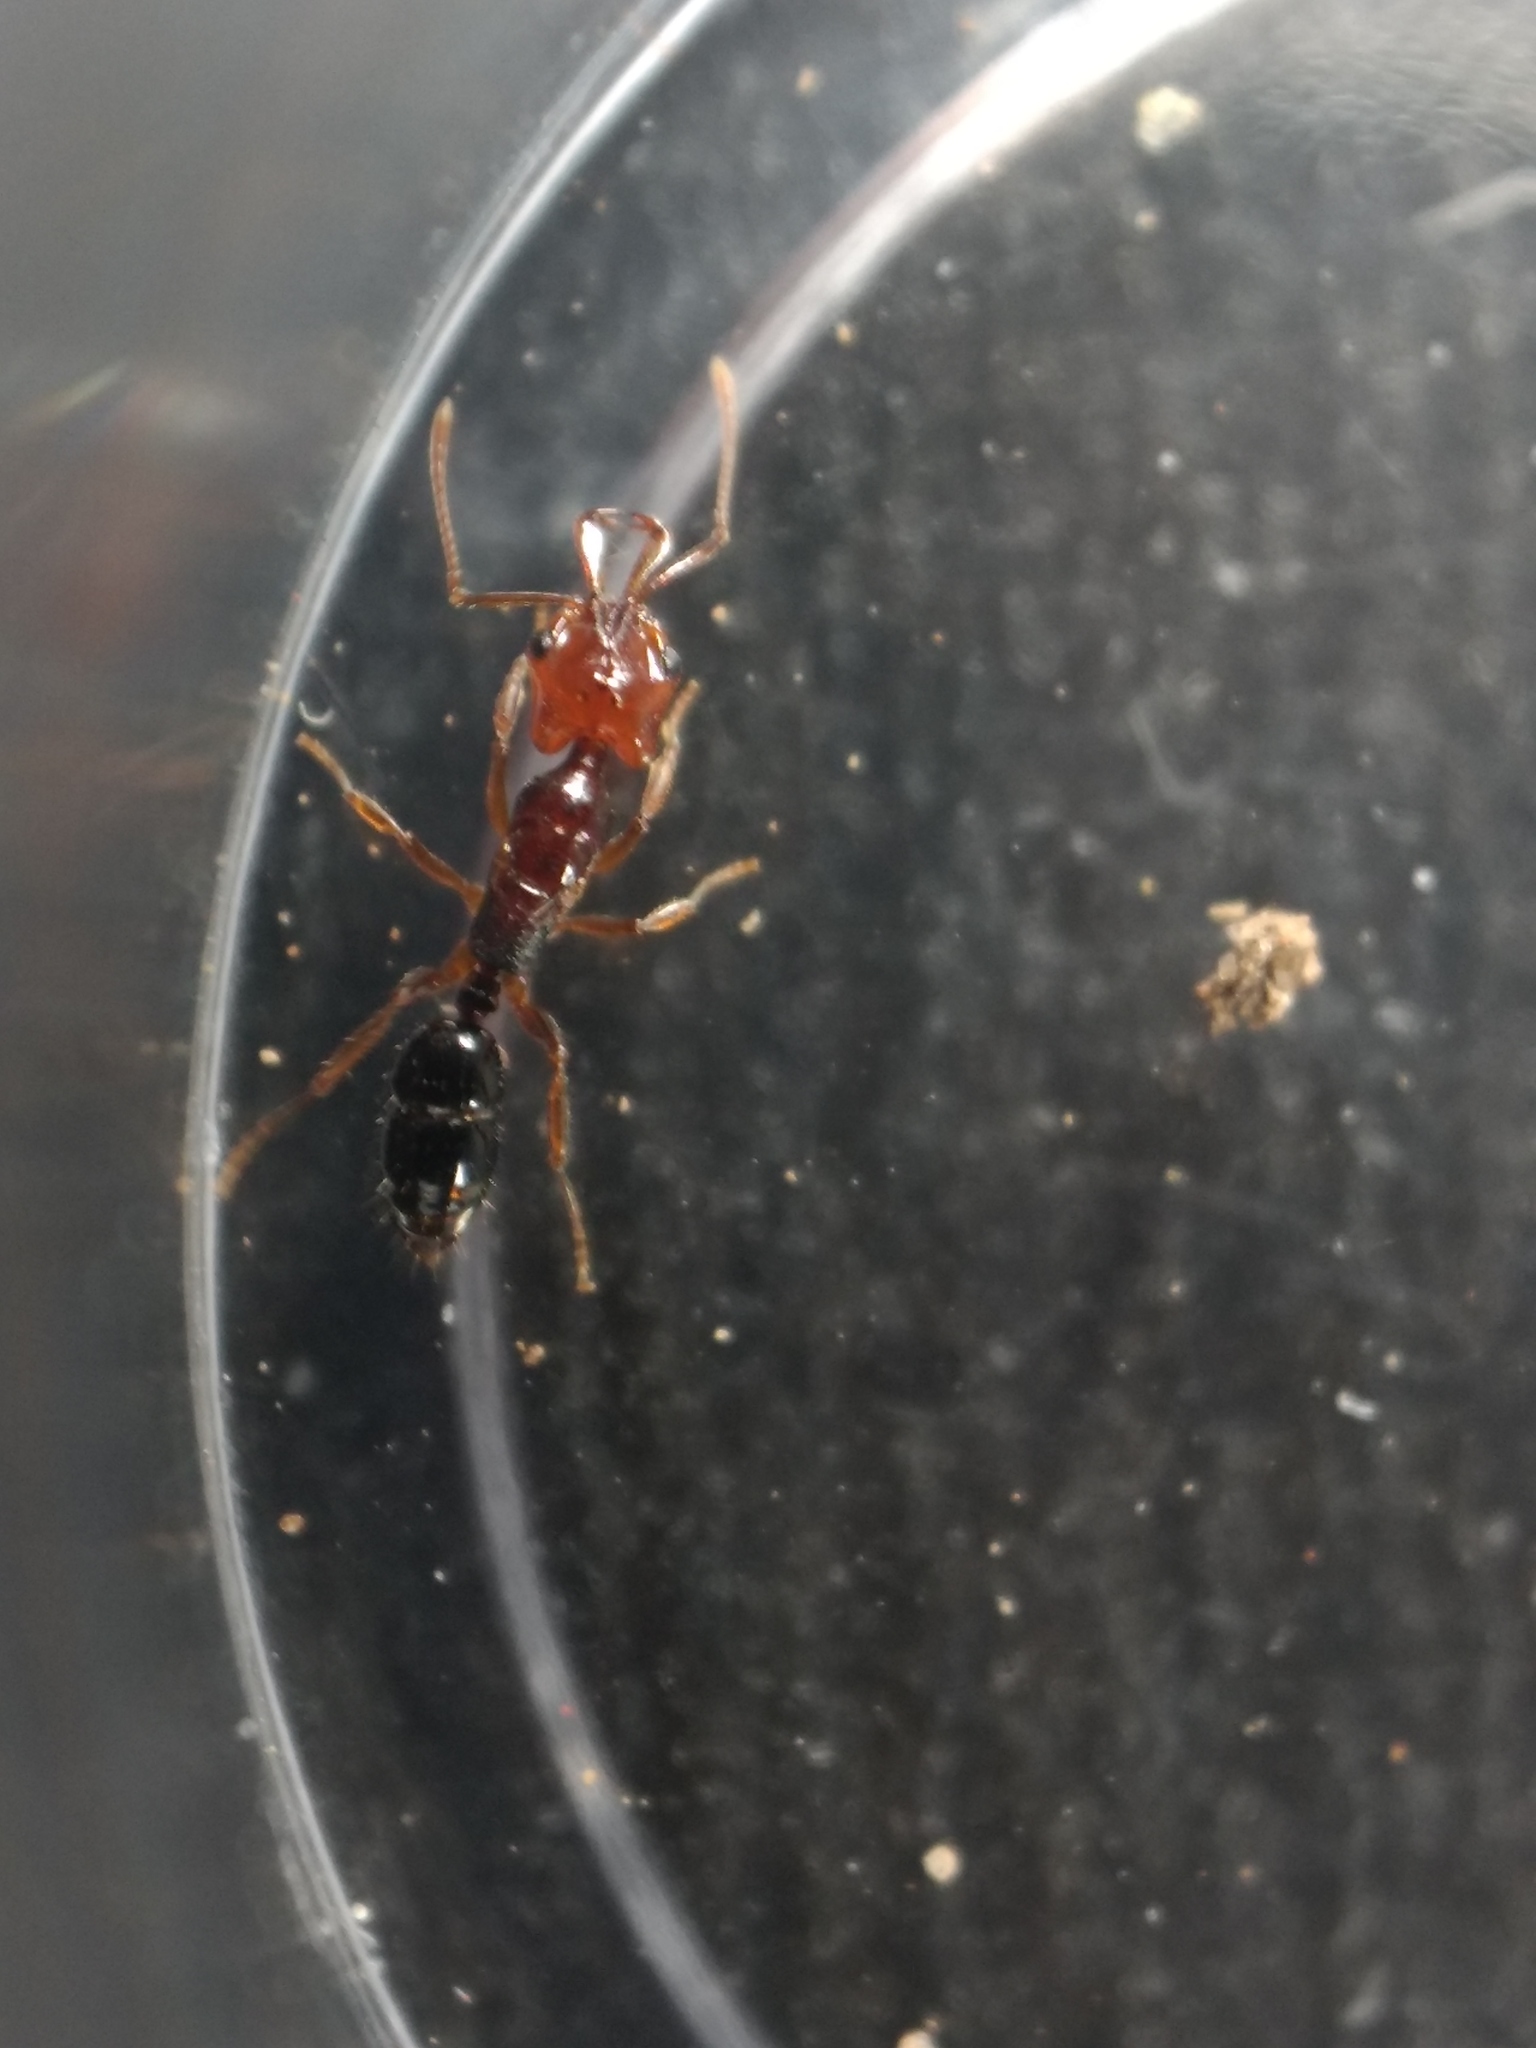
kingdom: Animalia
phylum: Arthropoda
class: Insecta
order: Hymenoptera
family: Formicidae
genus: Anochetus
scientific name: Anochetus rectangularis
